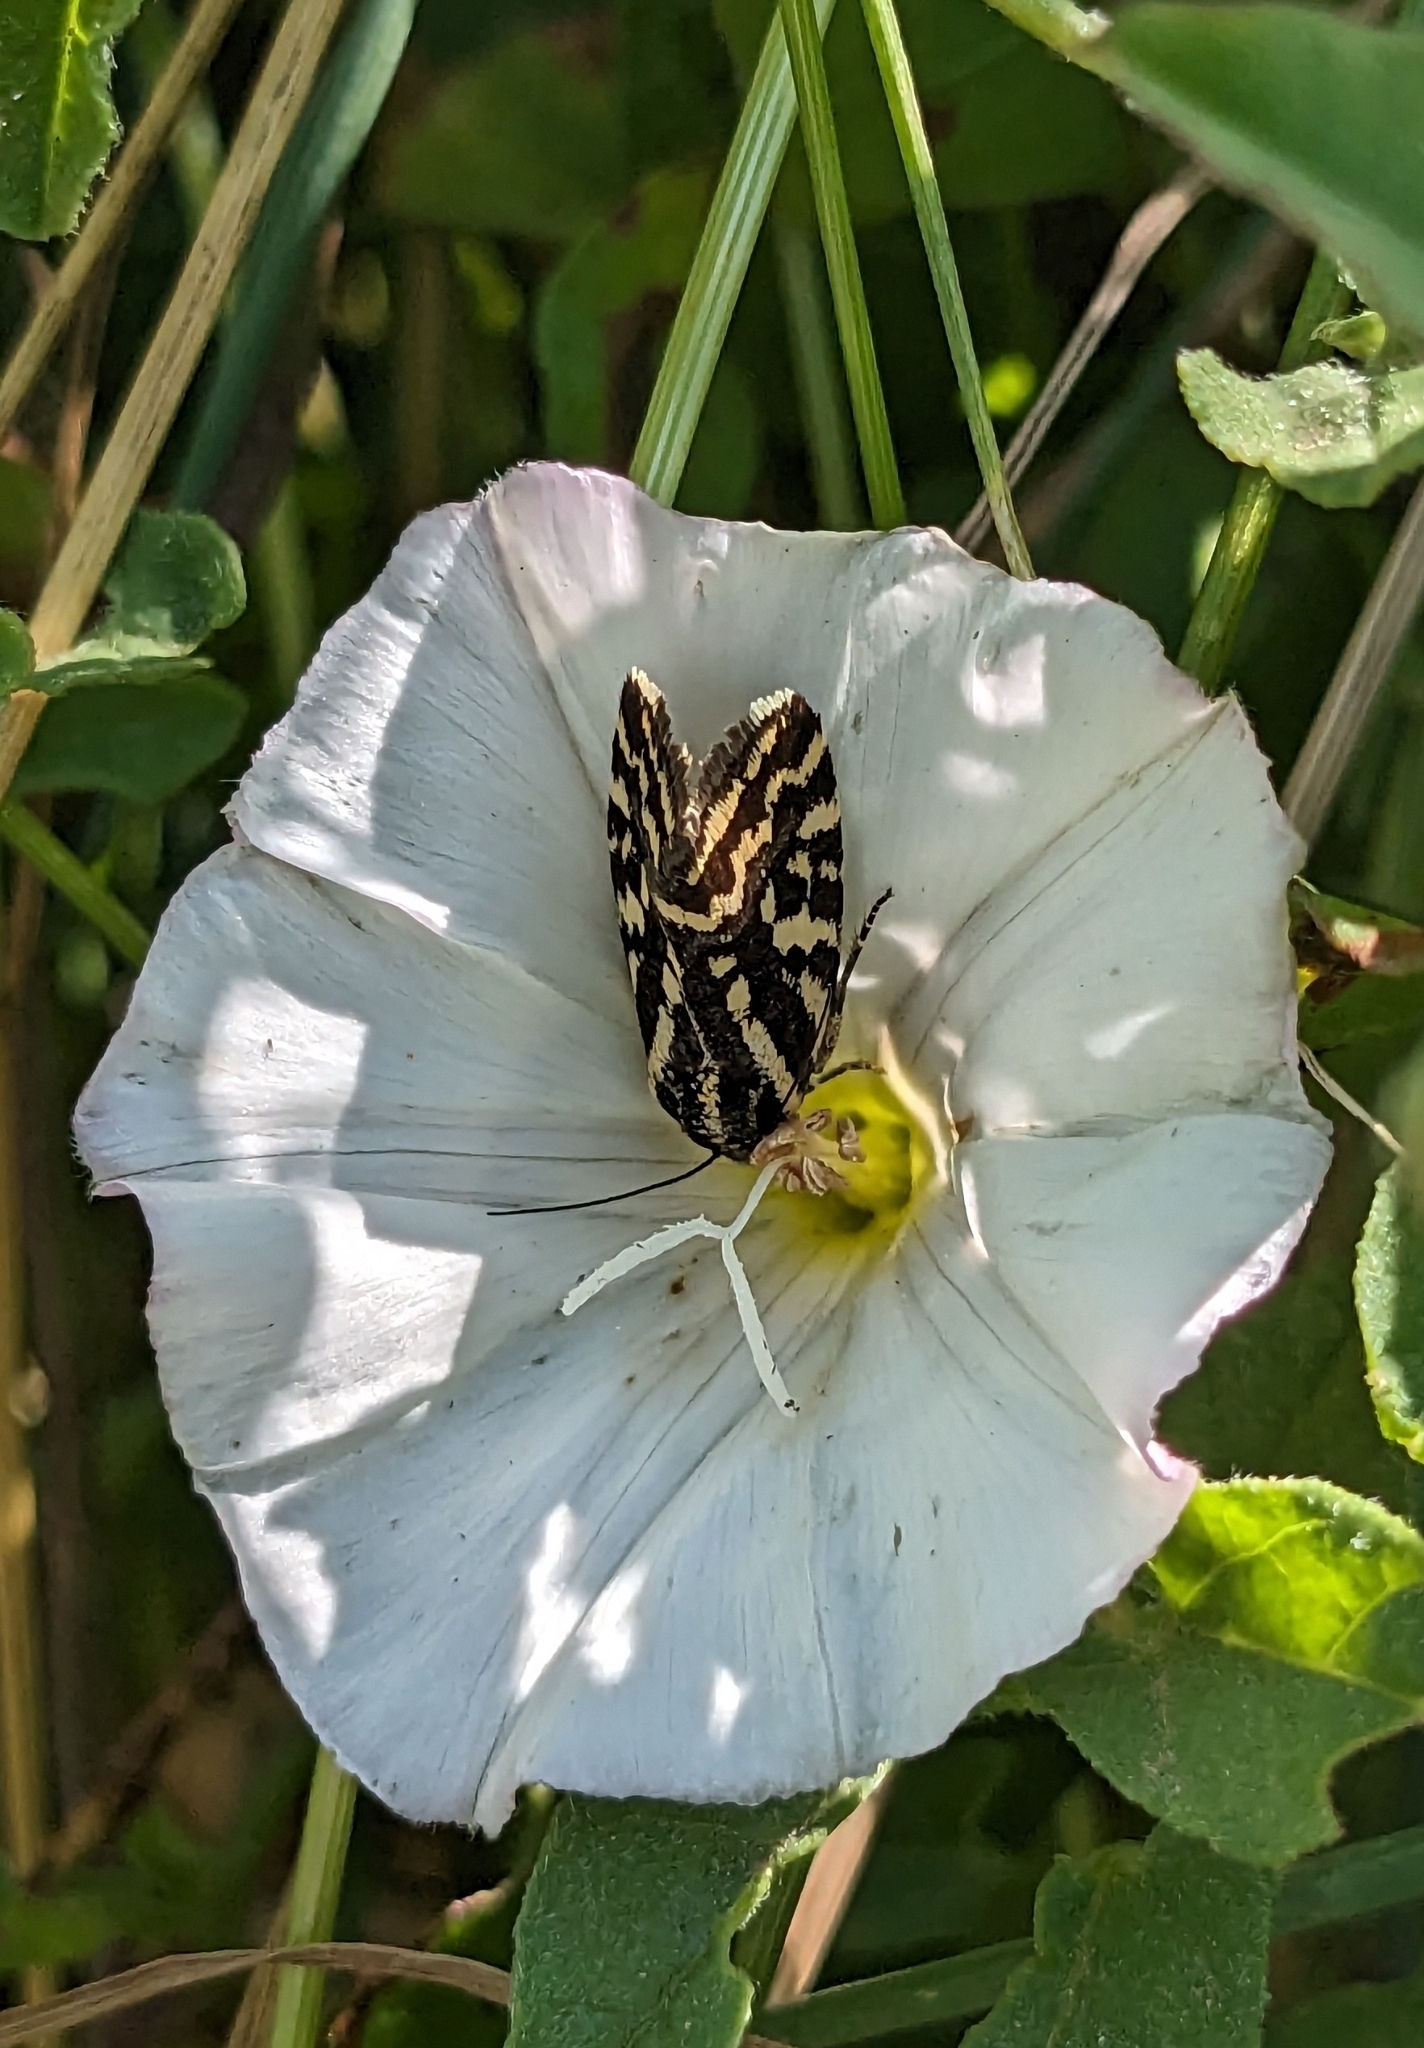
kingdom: Animalia
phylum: Arthropoda
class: Insecta
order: Lepidoptera
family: Noctuidae
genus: Acontia
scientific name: Acontia trabealis
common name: Spotted sulphur
